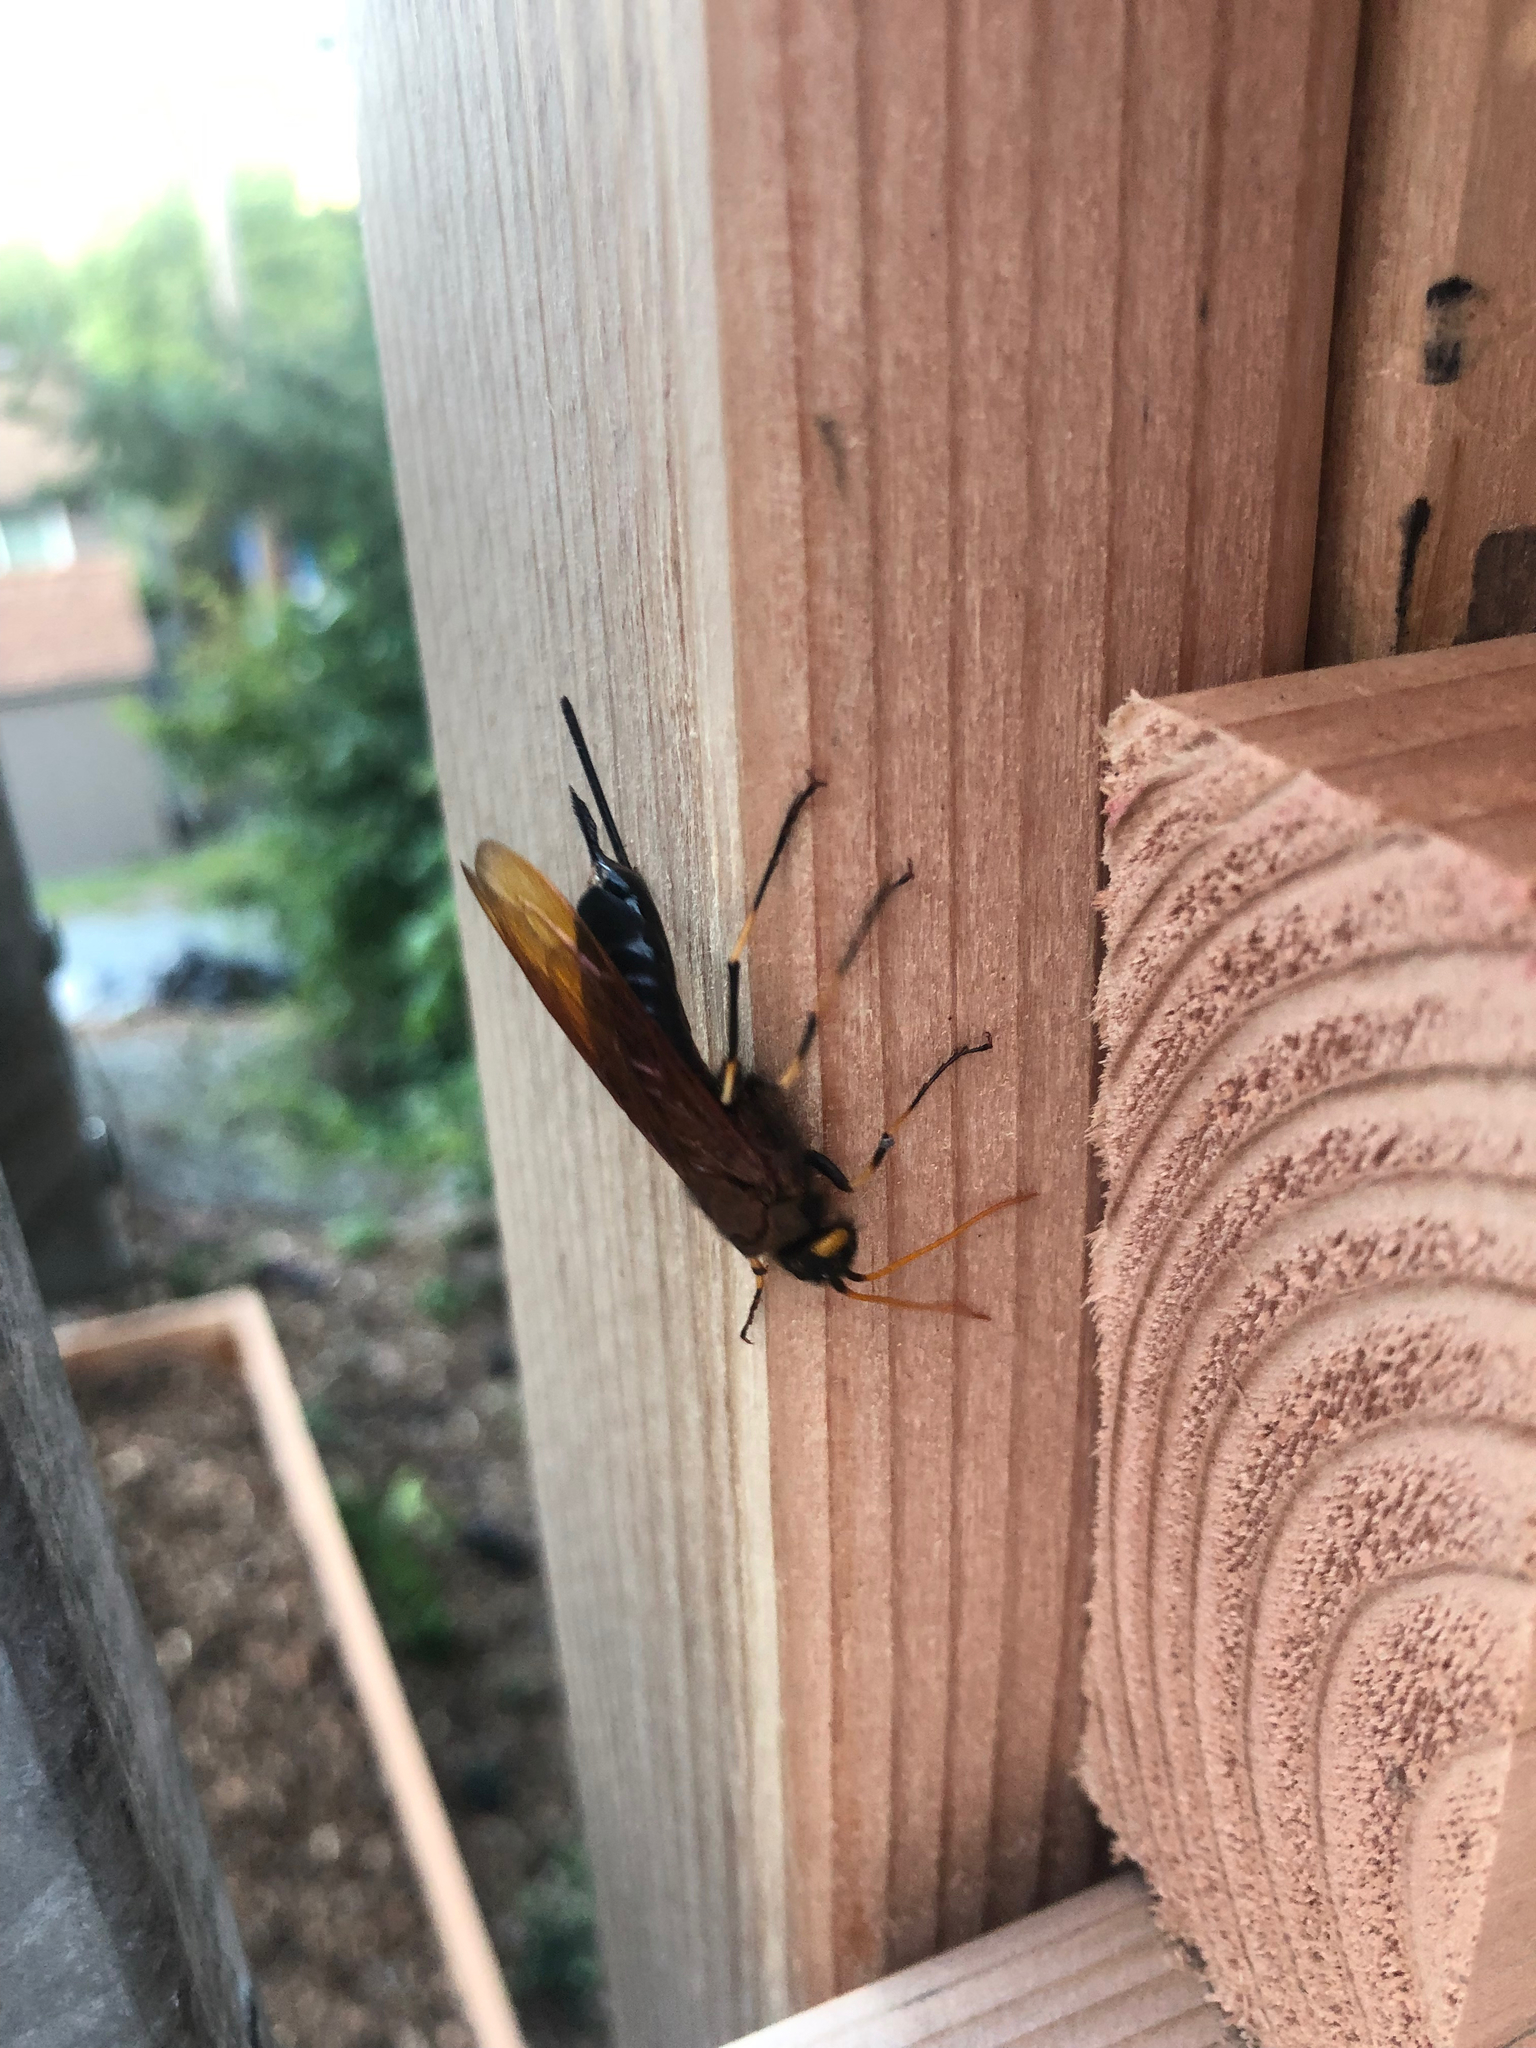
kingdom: Animalia
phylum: Arthropoda
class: Insecta
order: Hymenoptera
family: Siricidae
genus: Urocerus
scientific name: Urocerus californicus
